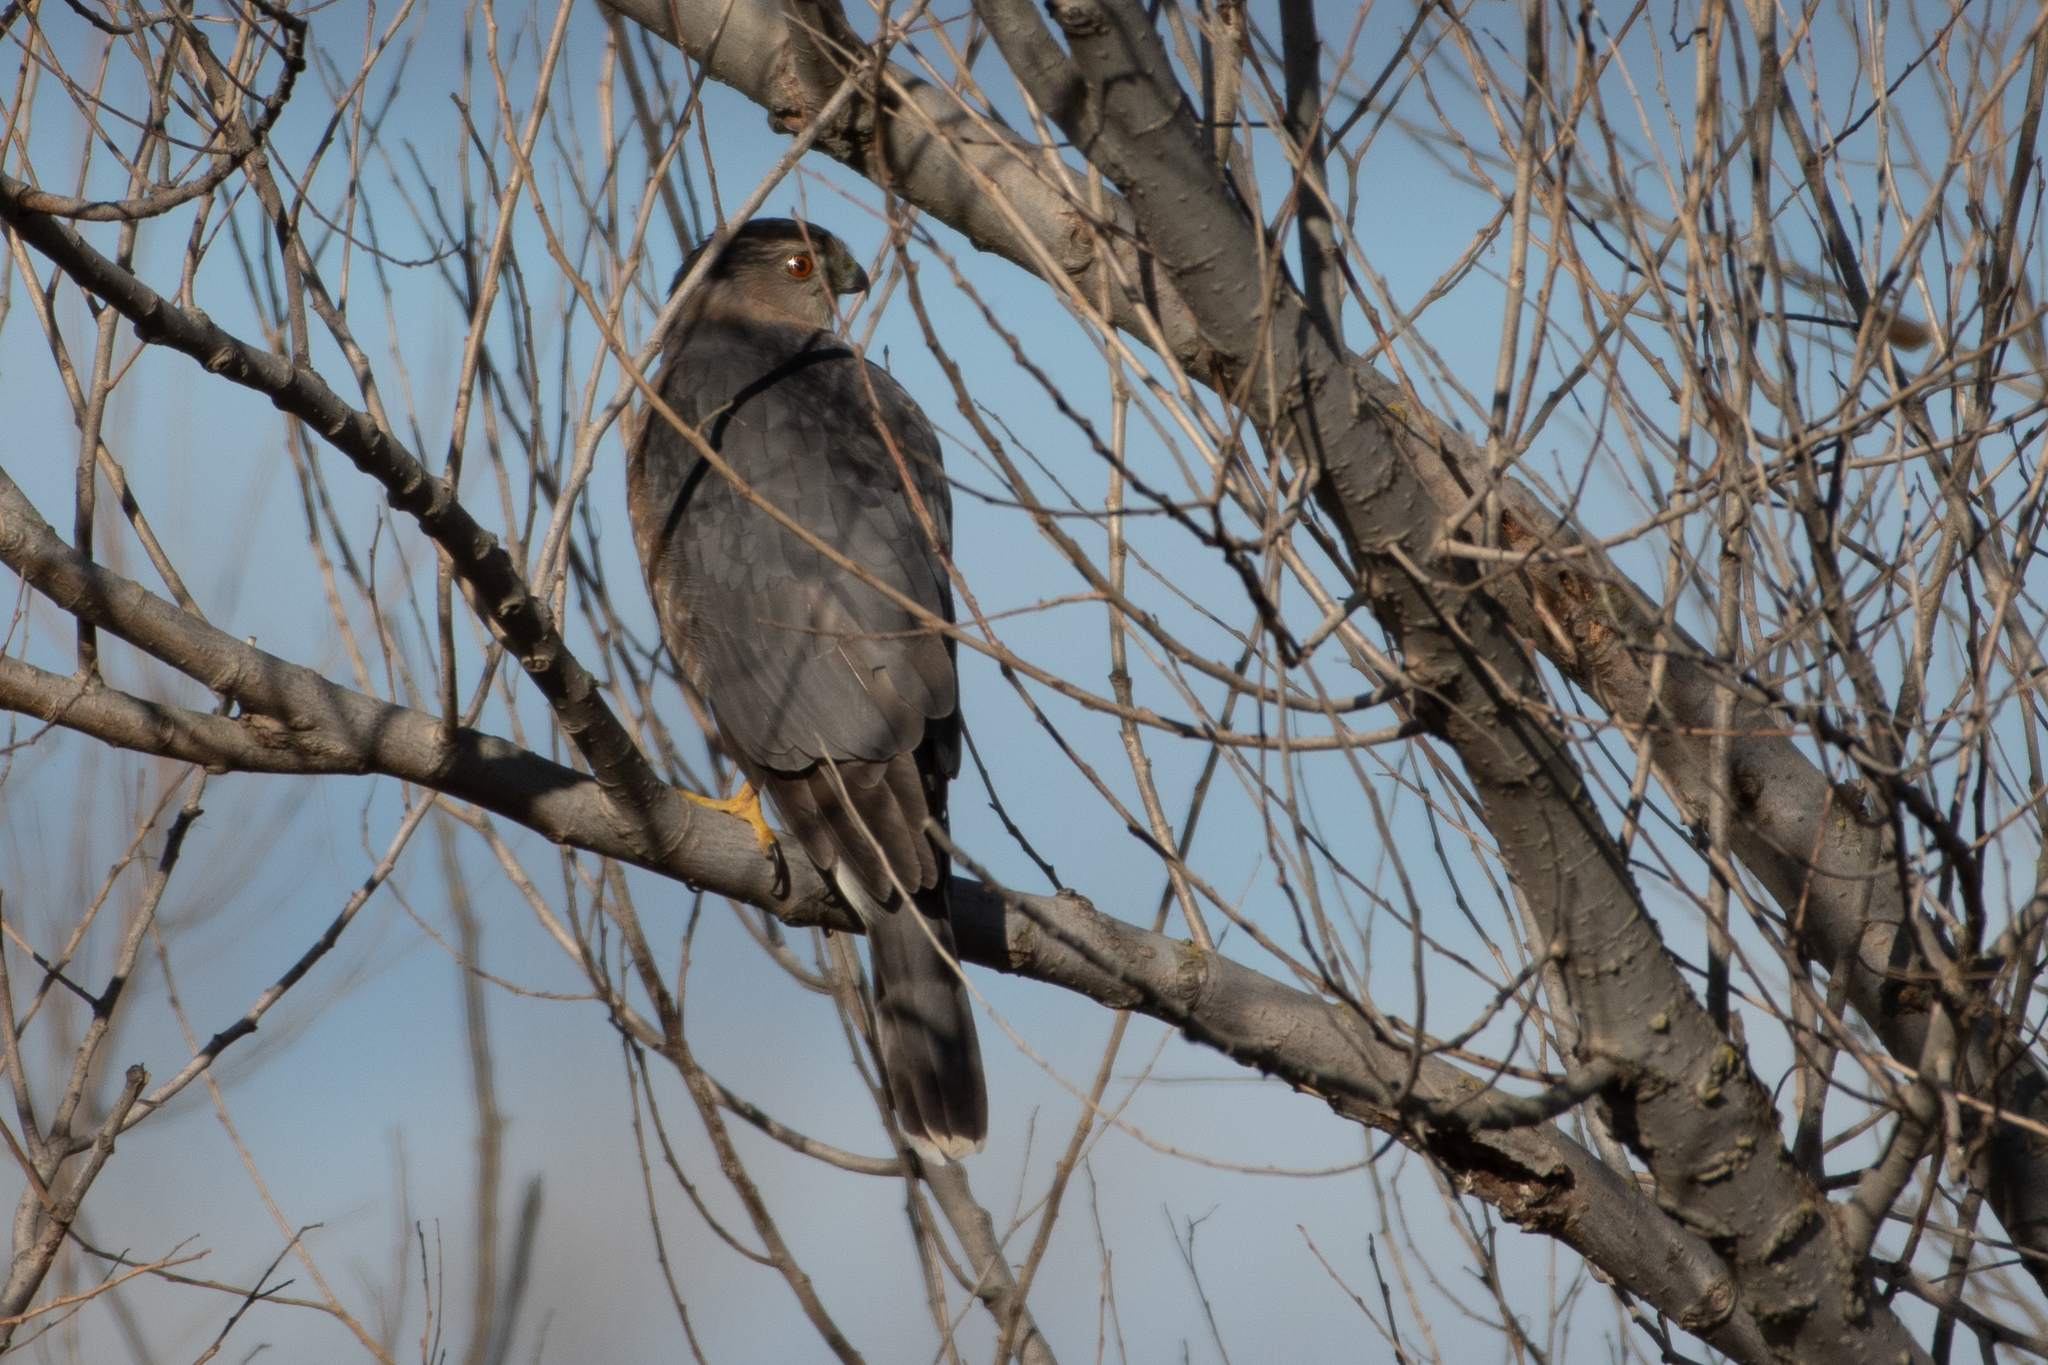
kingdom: Animalia
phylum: Chordata
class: Aves
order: Accipitriformes
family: Accipitridae
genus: Accipiter
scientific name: Accipiter cooperii
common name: Cooper's hawk
